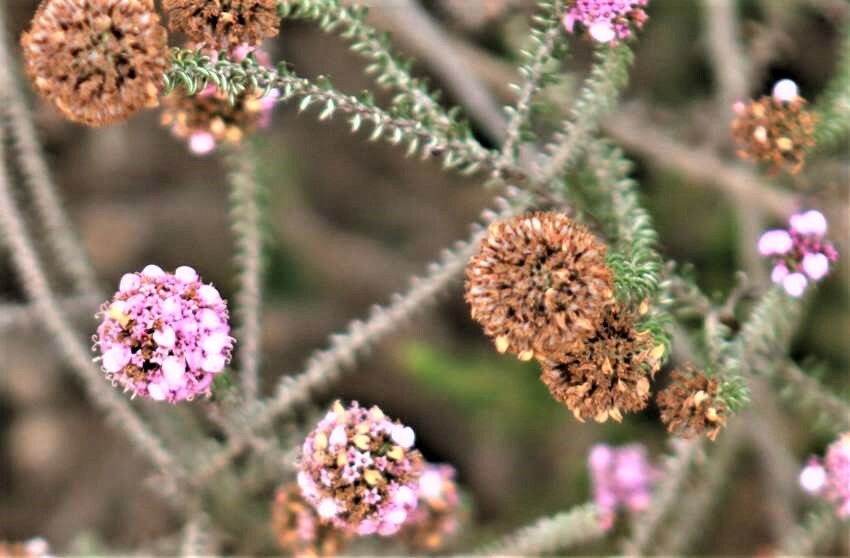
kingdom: Plantae
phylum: Tracheophyta
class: Magnoliopsida
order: Asterales
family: Asteraceae
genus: Disparago
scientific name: Disparago tortilis
